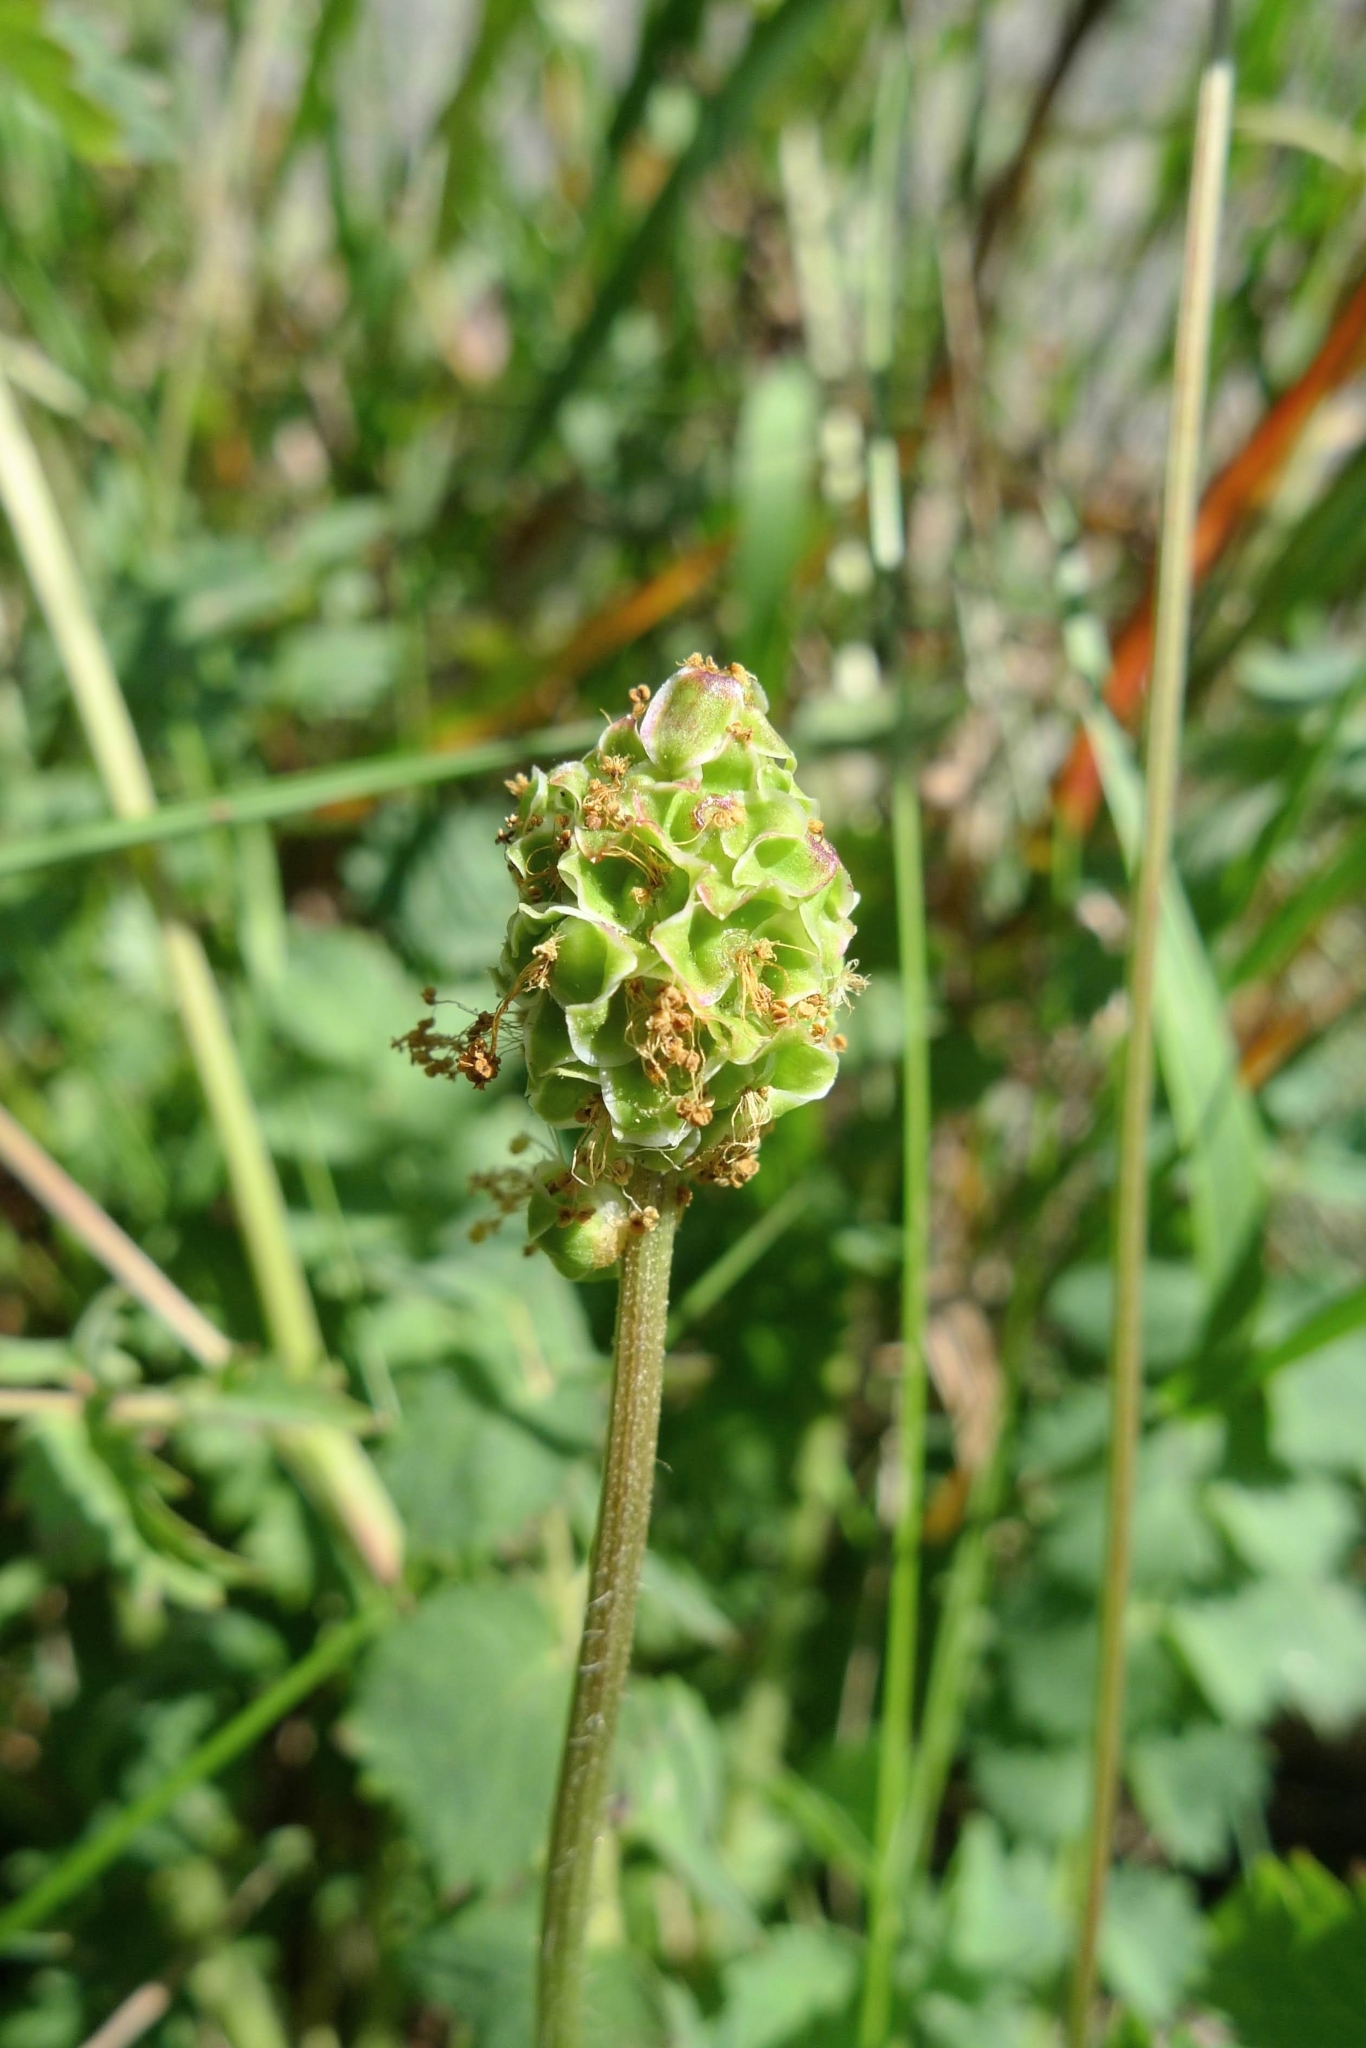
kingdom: Plantae
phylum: Tracheophyta
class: Magnoliopsida
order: Rosales
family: Rosaceae
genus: Poterium
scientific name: Poterium sanguisorba
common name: Salad burnet
